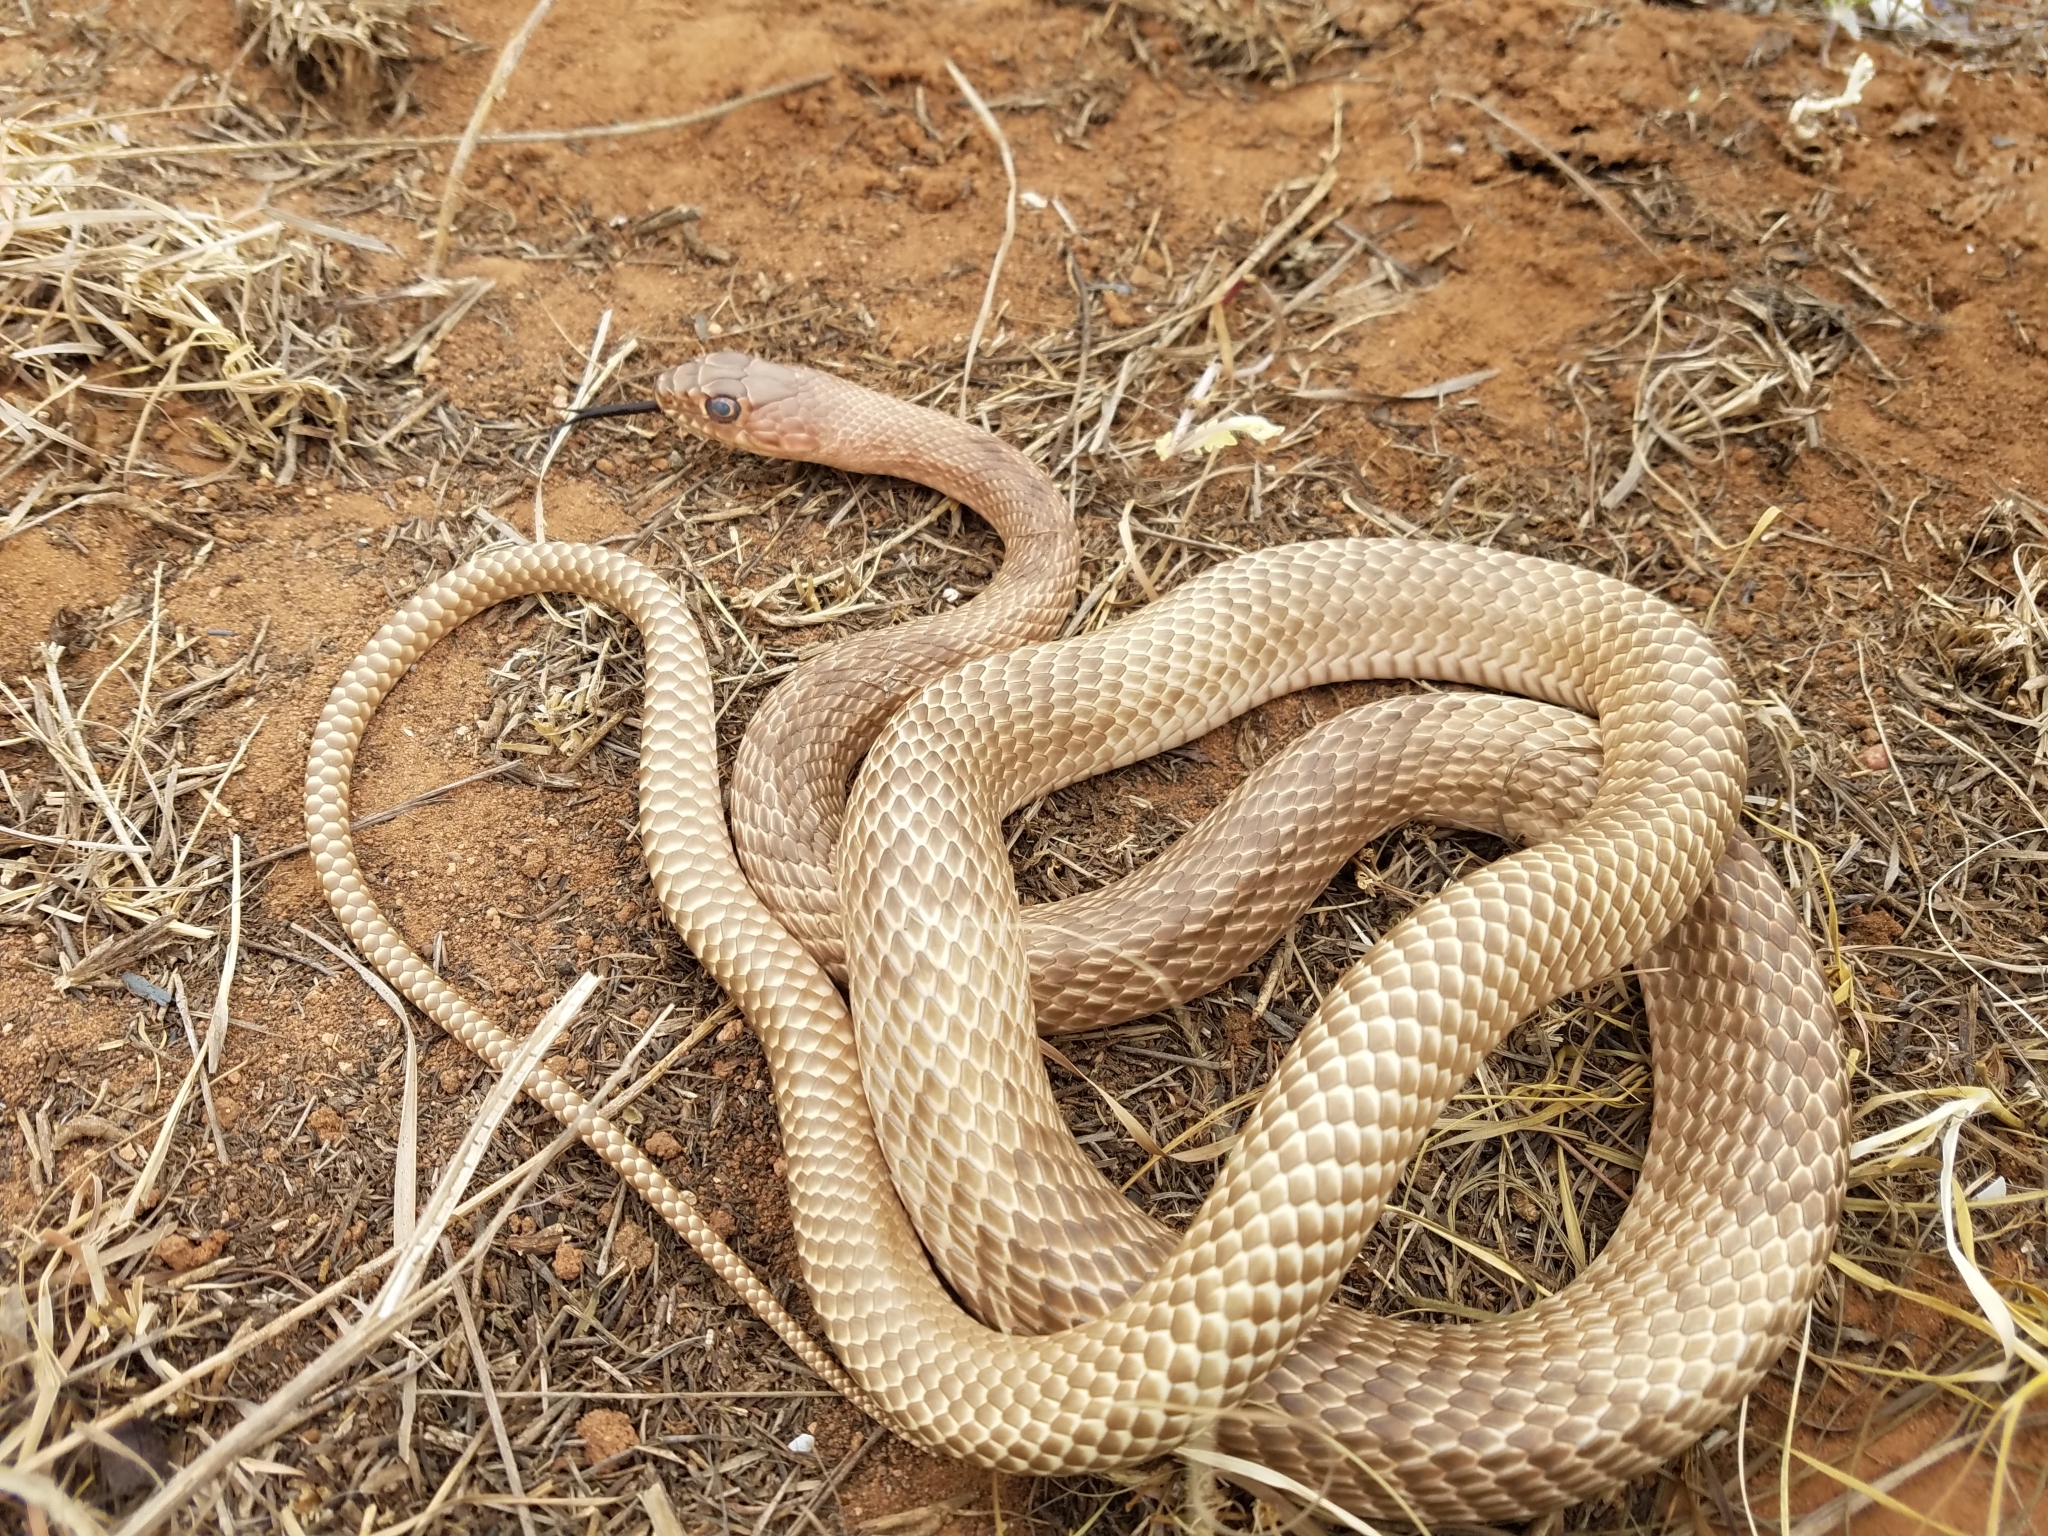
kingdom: Animalia
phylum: Chordata
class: Squamata
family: Colubridae
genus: Masticophis
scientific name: Masticophis flagellum
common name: Coachwhip
